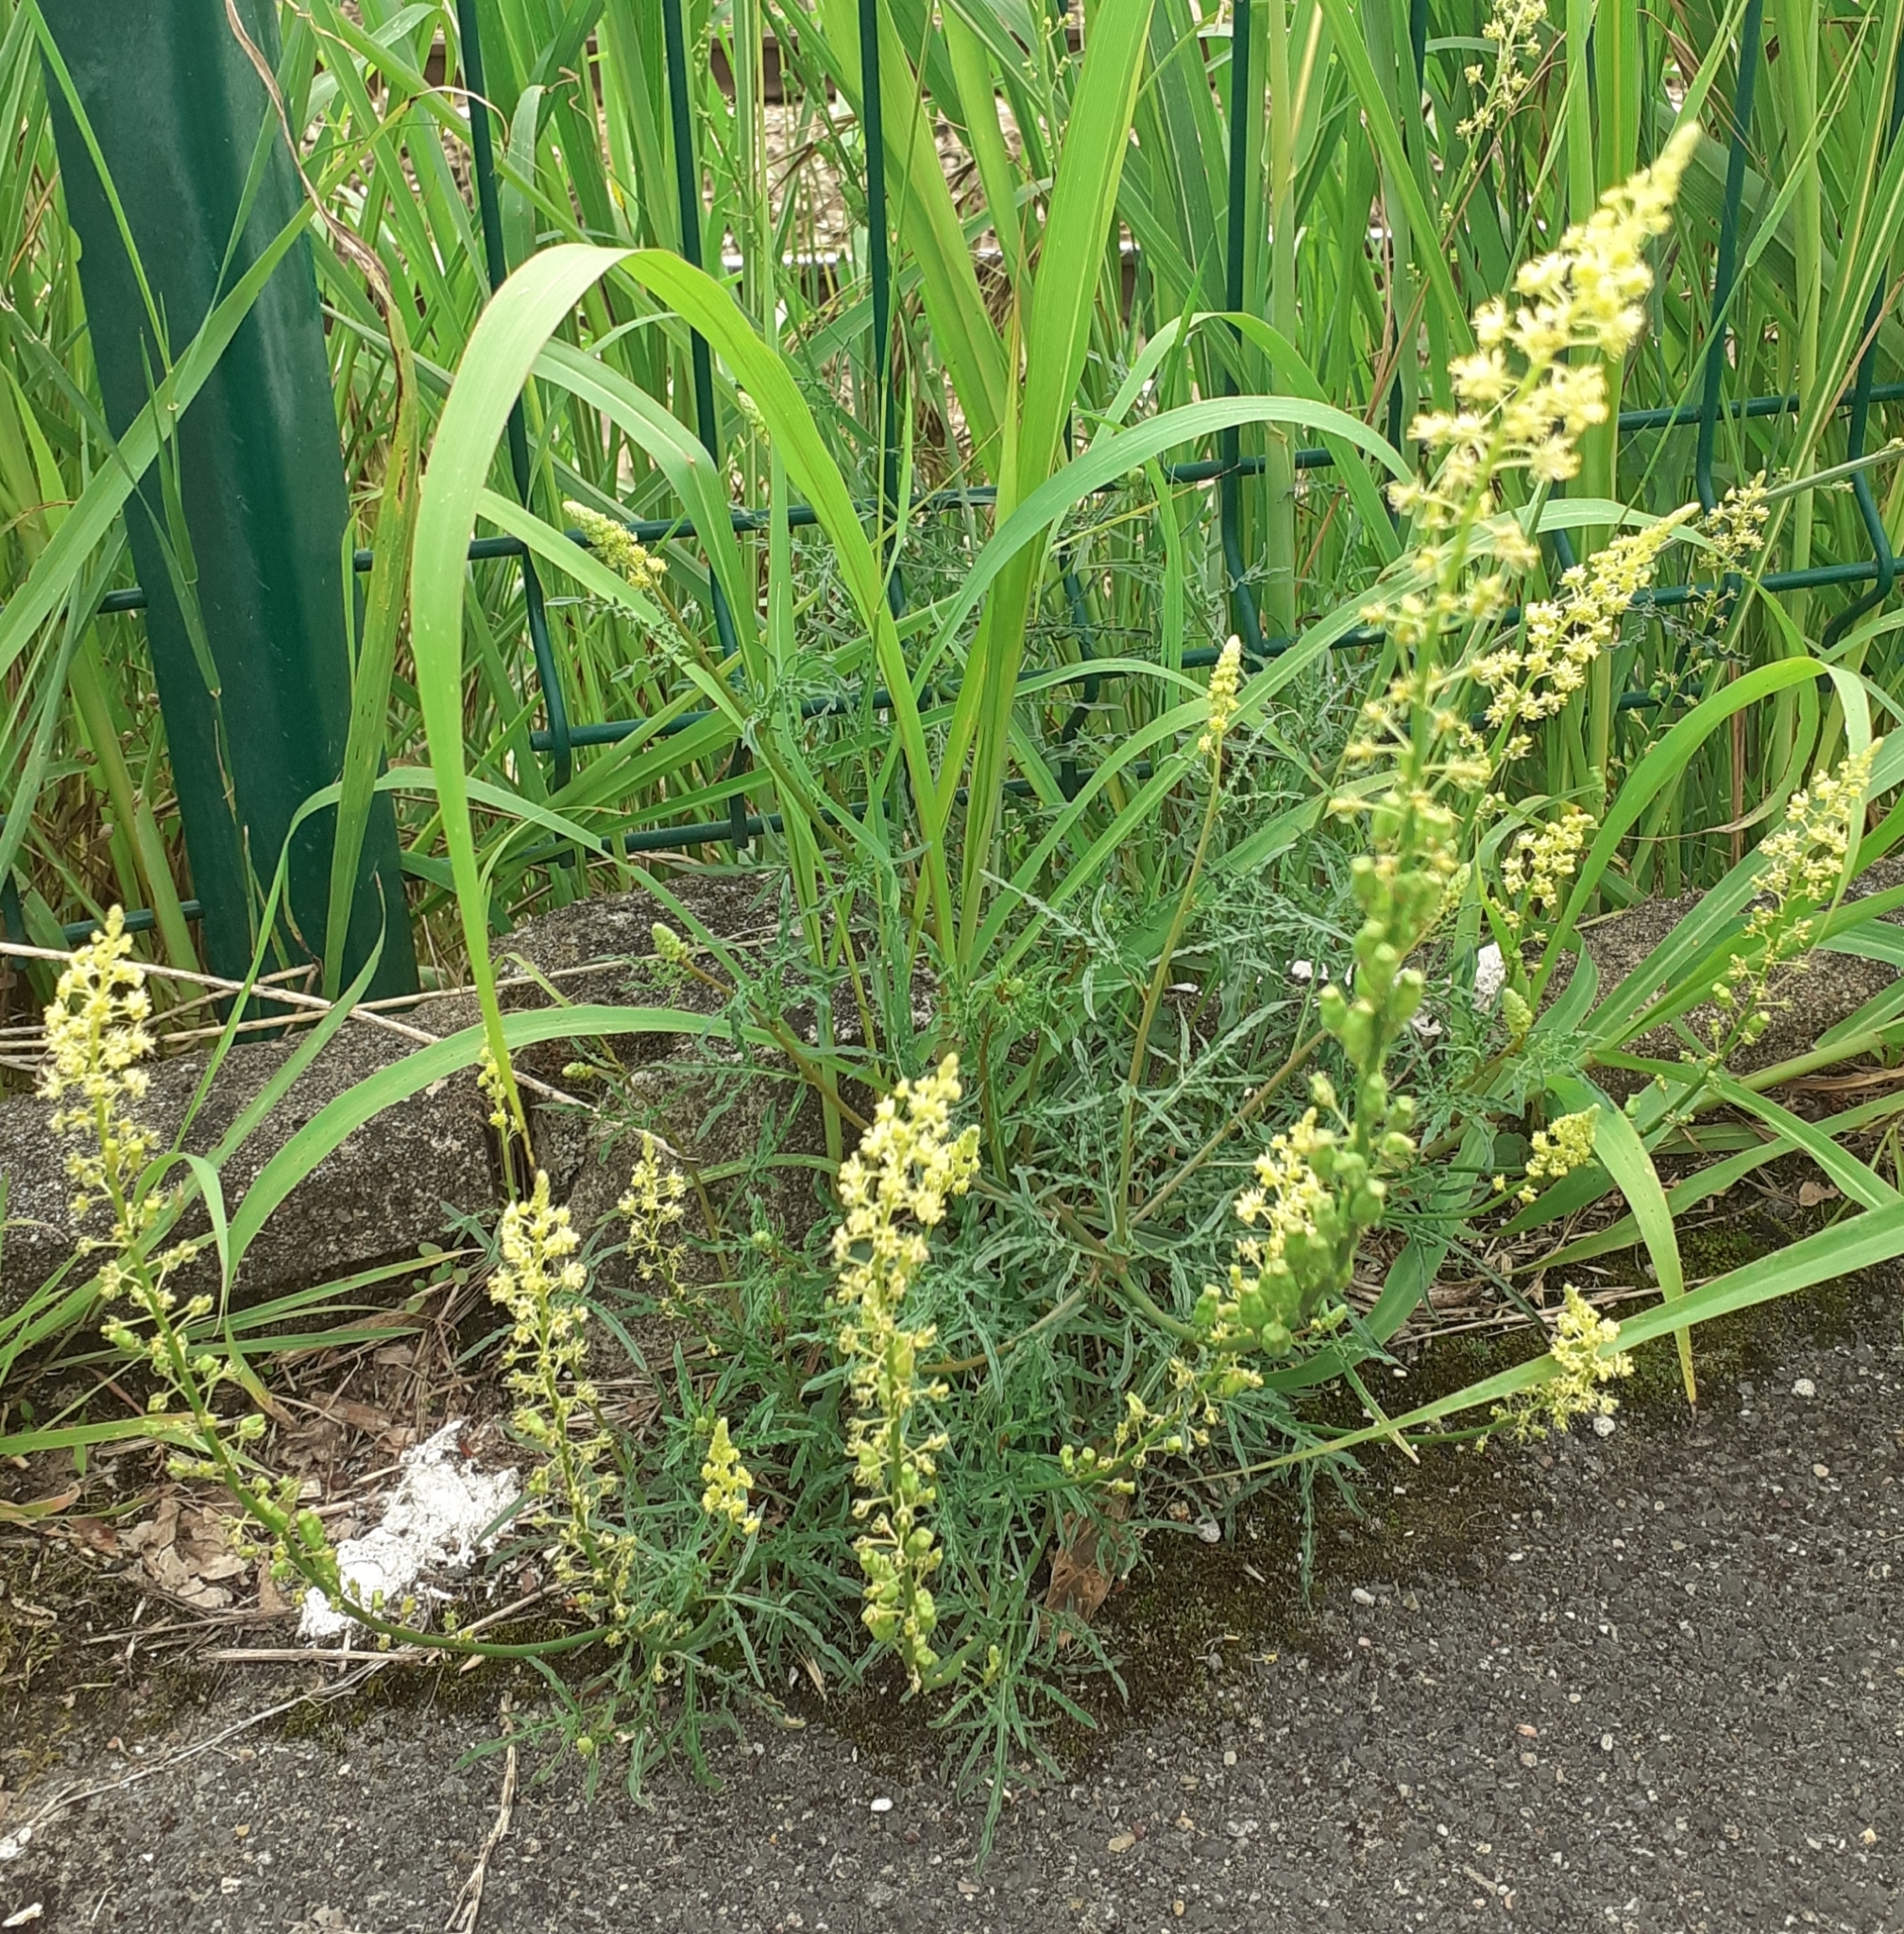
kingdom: Plantae
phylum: Tracheophyta
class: Magnoliopsida
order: Brassicales
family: Resedaceae
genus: Reseda
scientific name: Reseda lutea
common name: Wild mignonette
